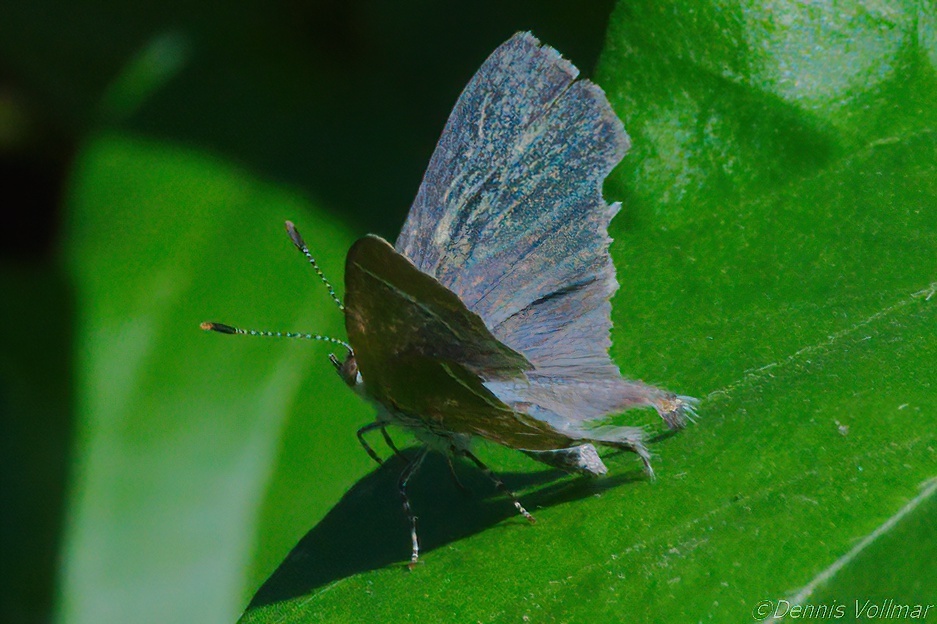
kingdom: Animalia
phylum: Arthropoda
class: Insecta
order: Lepidoptera
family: Lycaenidae
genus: Chlorostrymon
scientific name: Chlorostrymon simaethis
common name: Silver-banded hairstreak
